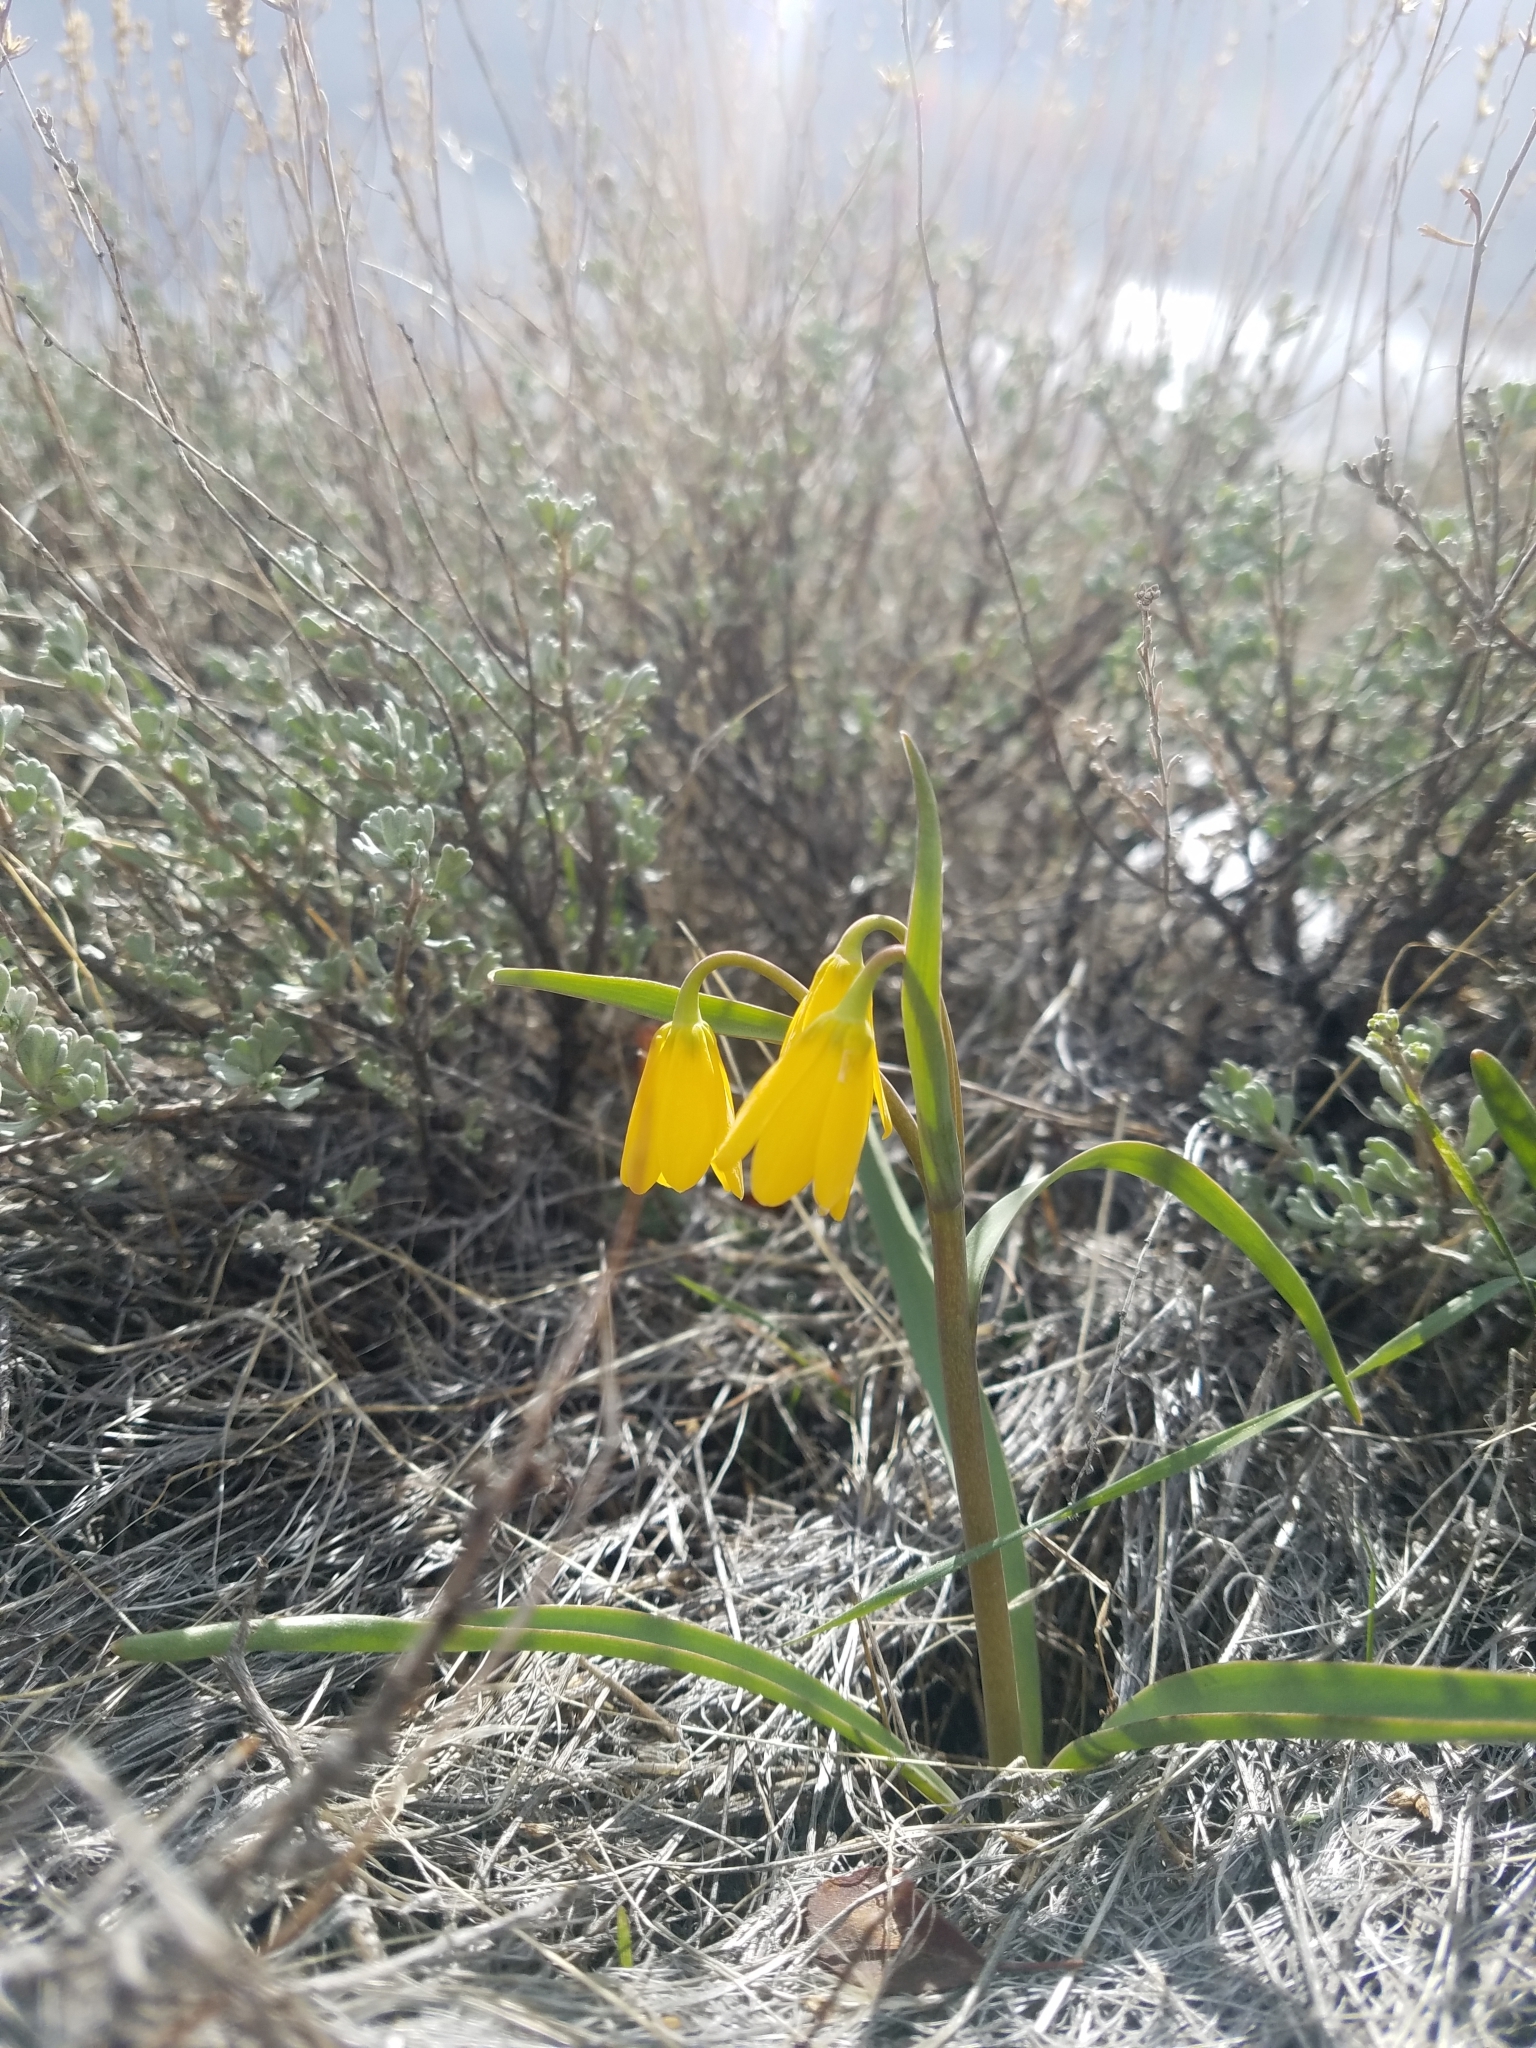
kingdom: Plantae
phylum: Tracheophyta
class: Liliopsida
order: Liliales
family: Liliaceae
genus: Fritillaria
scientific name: Fritillaria pudica
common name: Yellow fritillary
